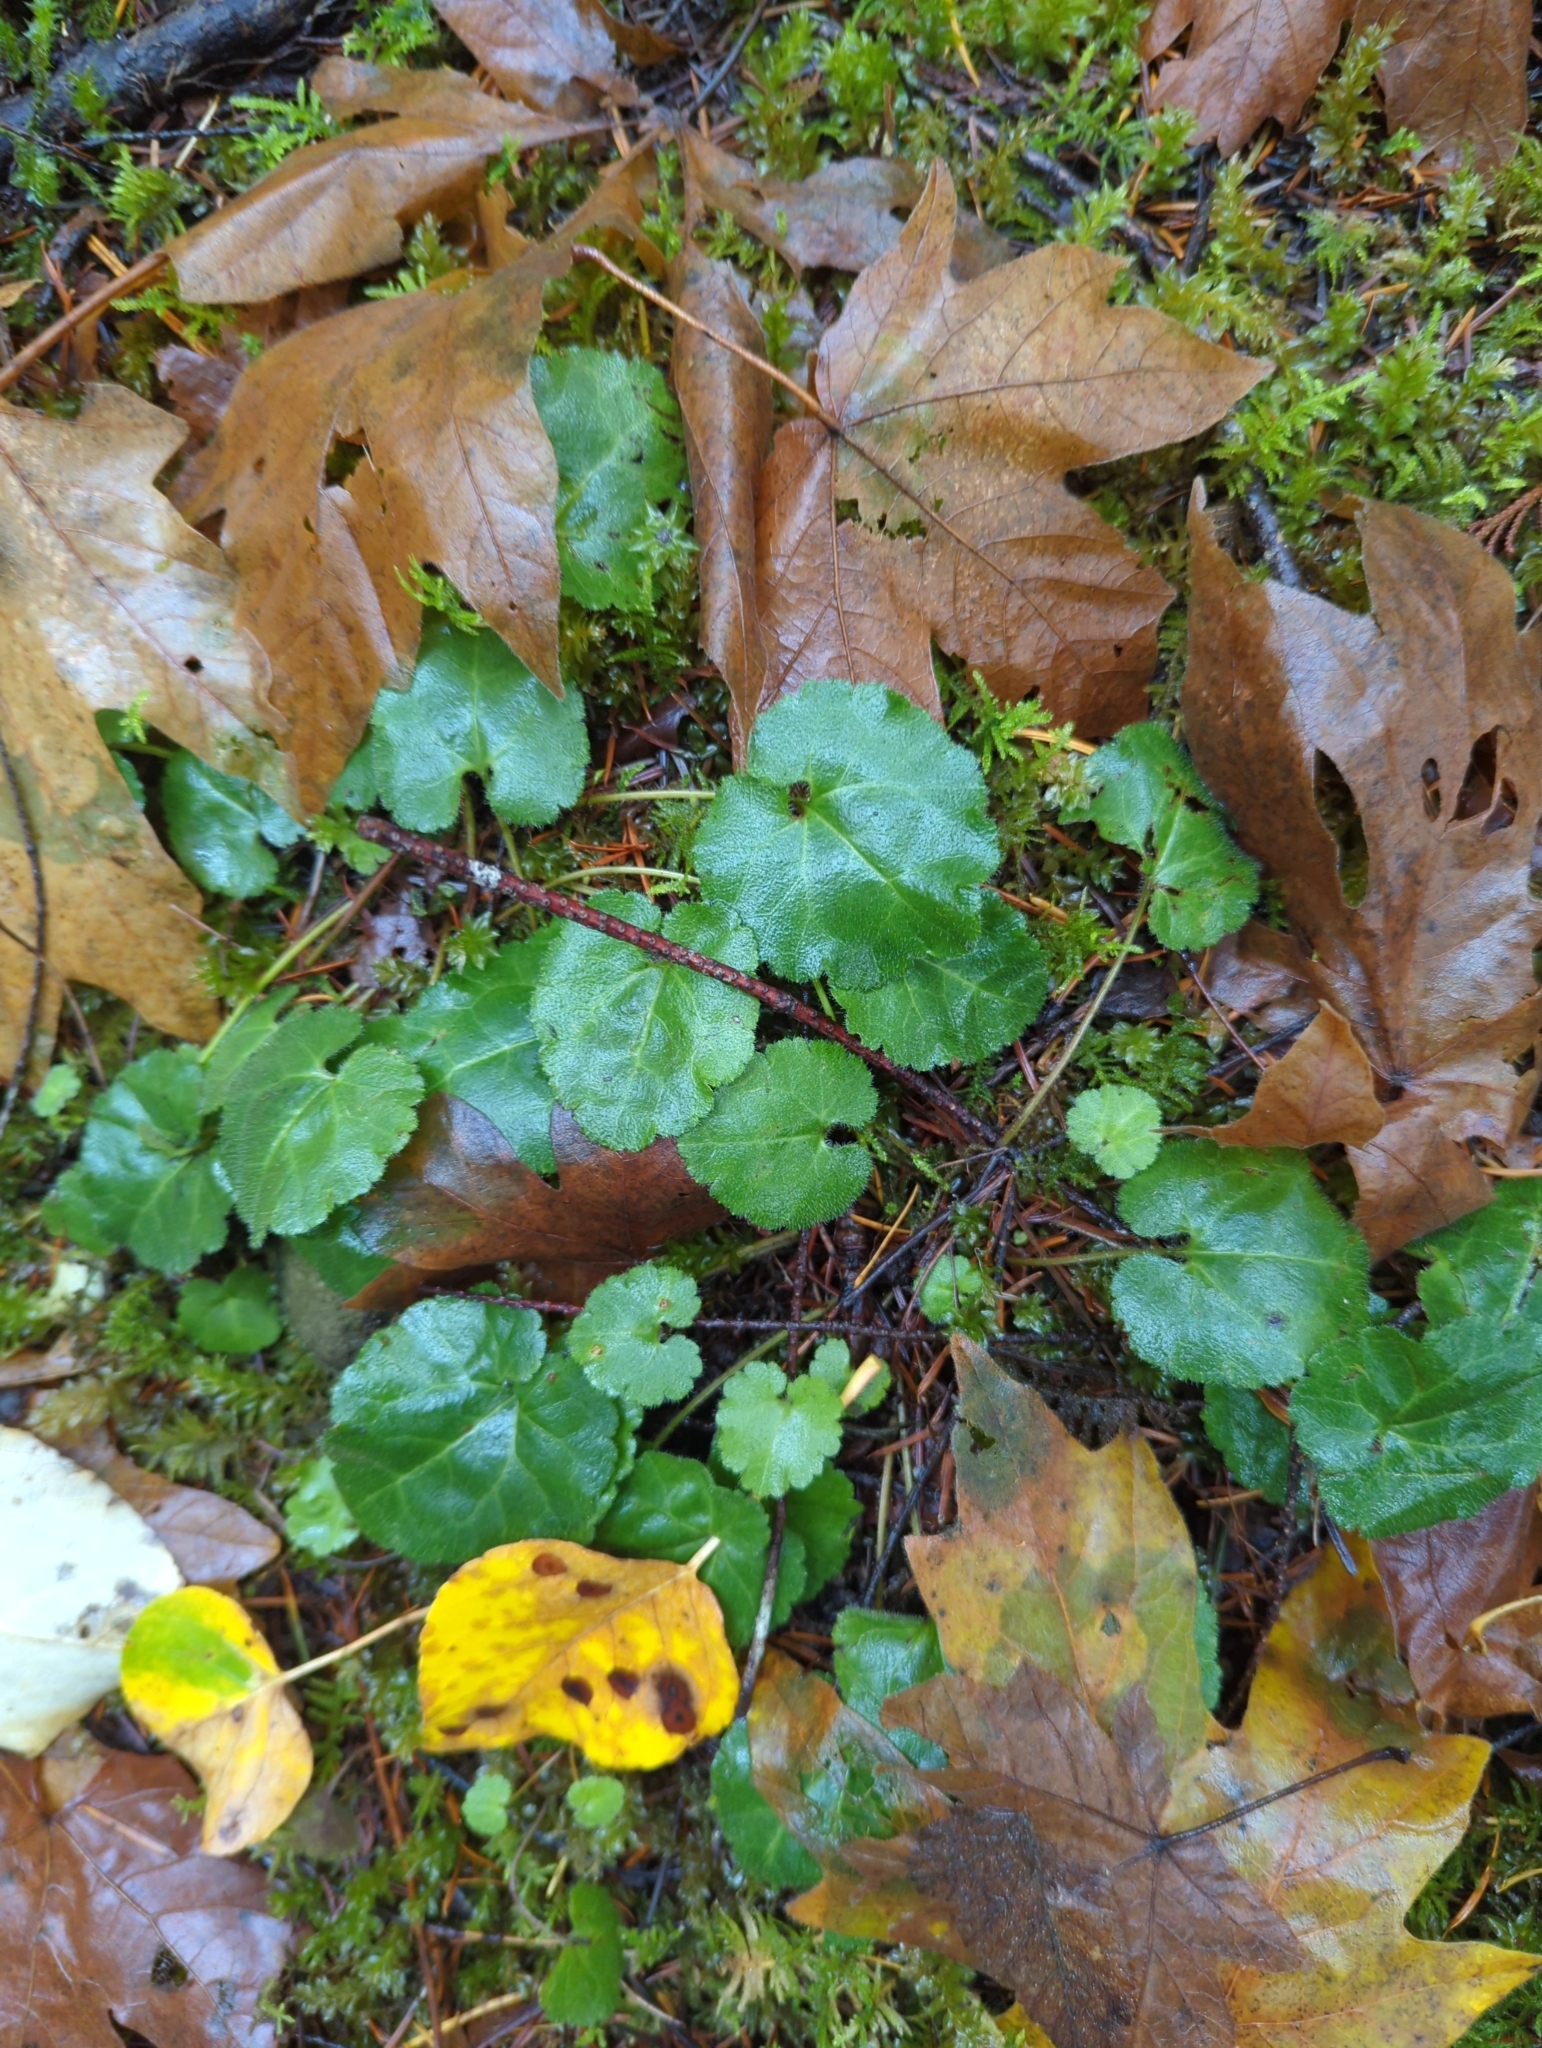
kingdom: Plantae
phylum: Tracheophyta
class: Magnoliopsida
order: Lamiales
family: Plantaginaceae
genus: Synthyris
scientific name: Synthyris reniformis
